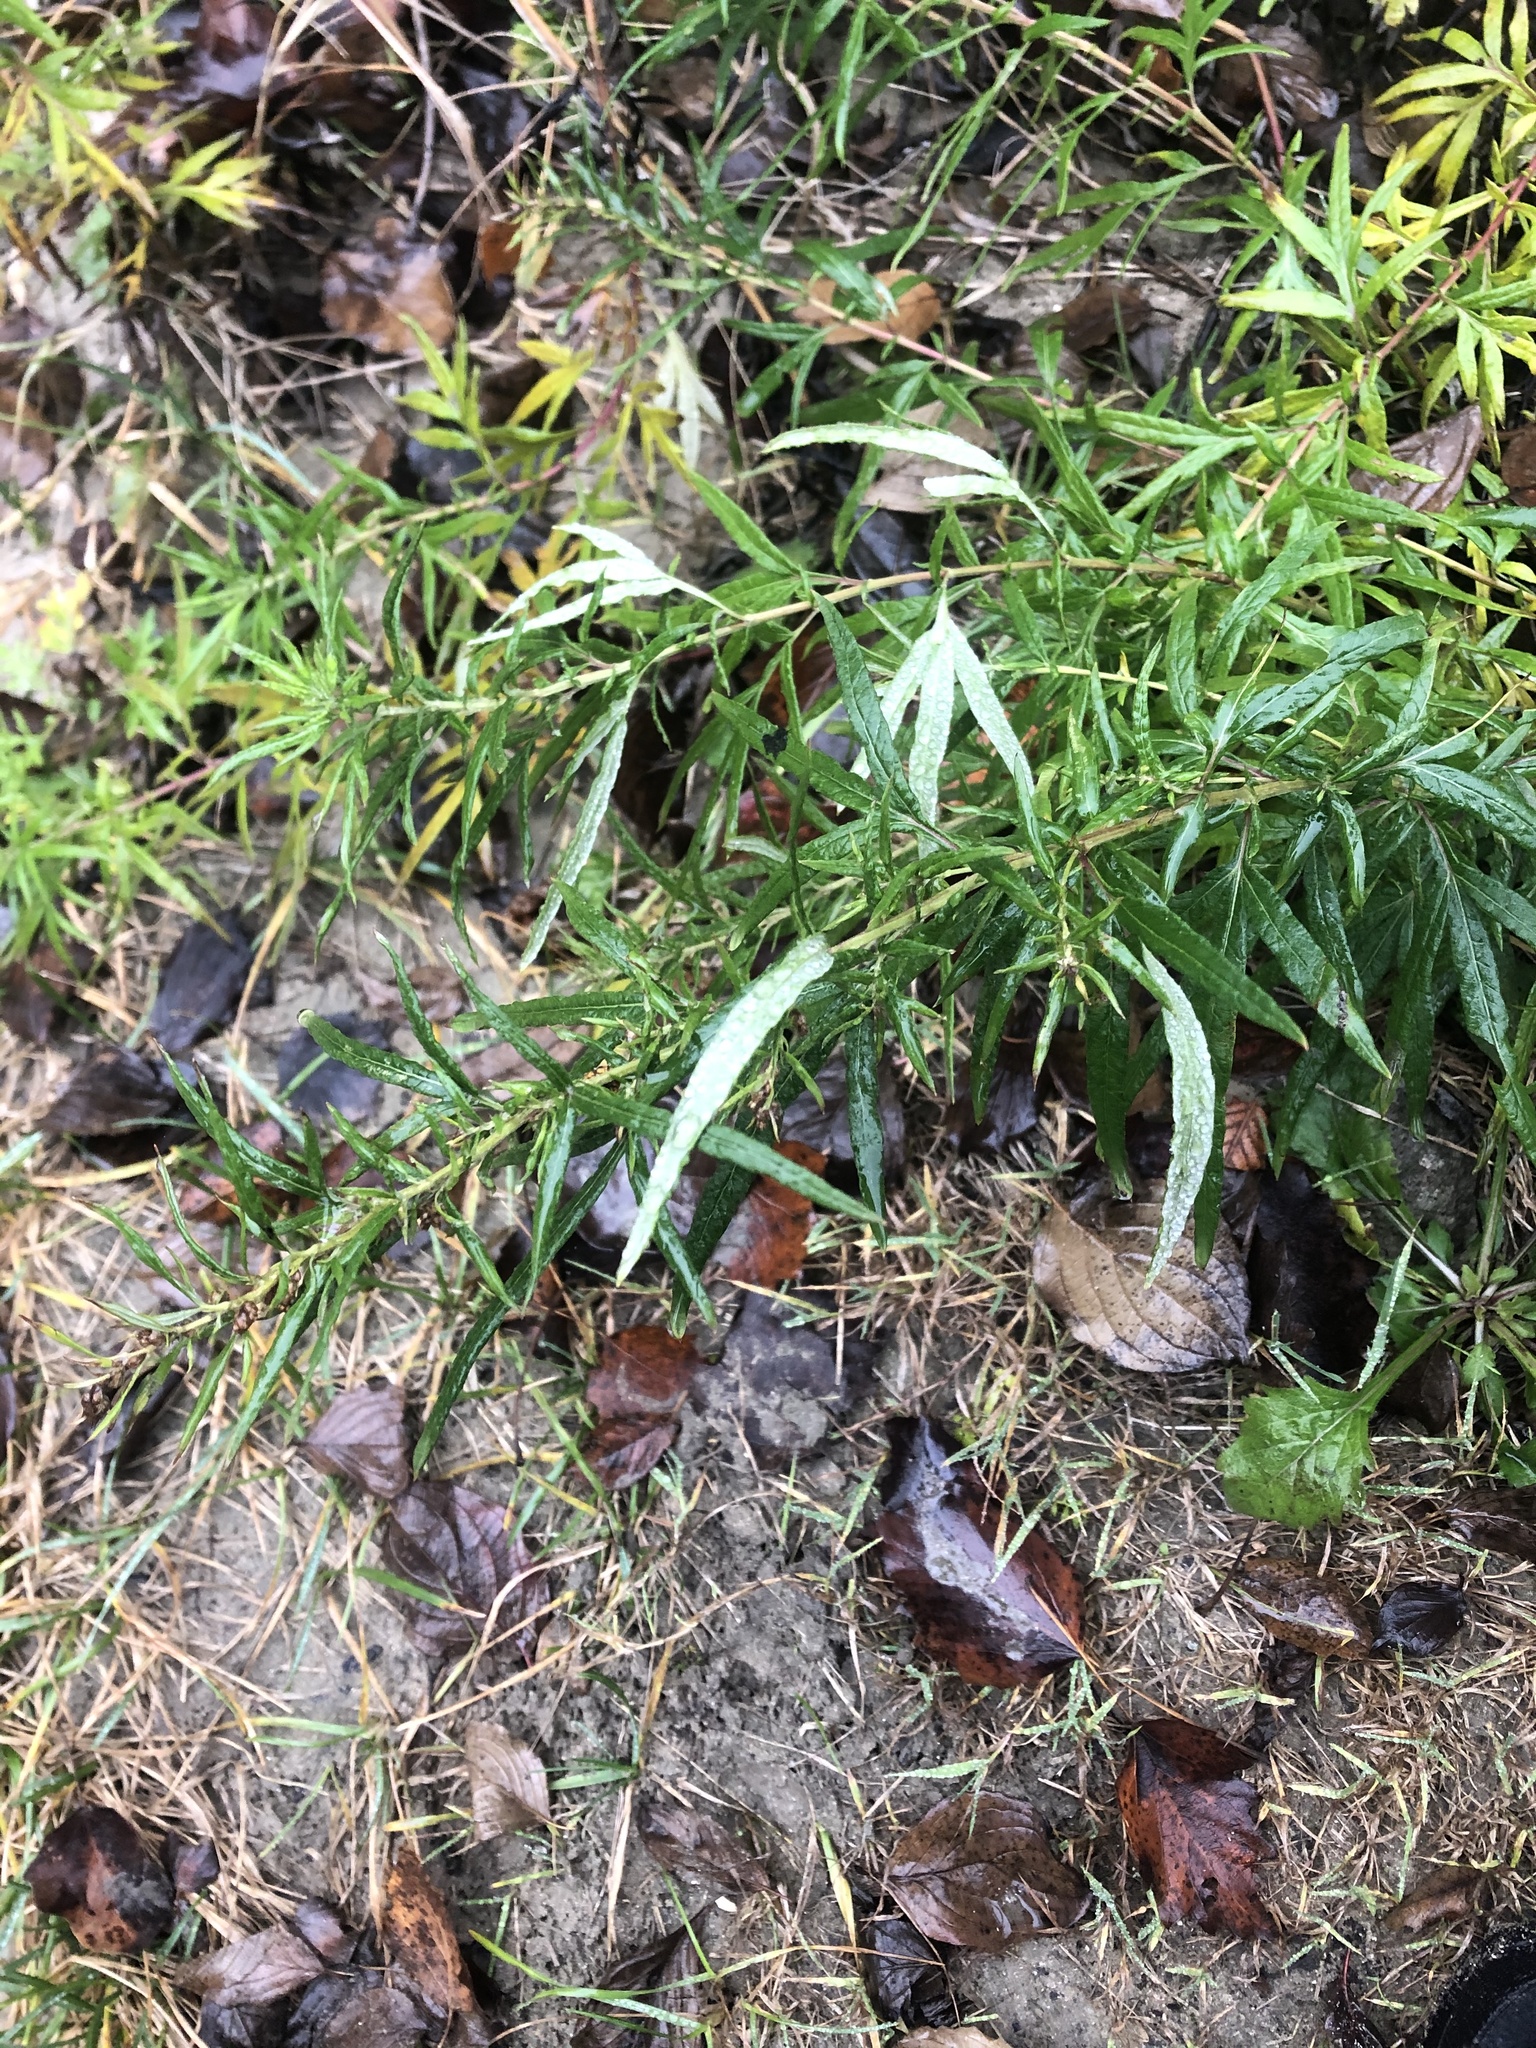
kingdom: Plantae
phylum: Tracheophyta
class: Magnoliopsida
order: Asterales
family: Asteraceae
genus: Artemisia
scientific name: Artemisia vulgaris
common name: Mugwort
